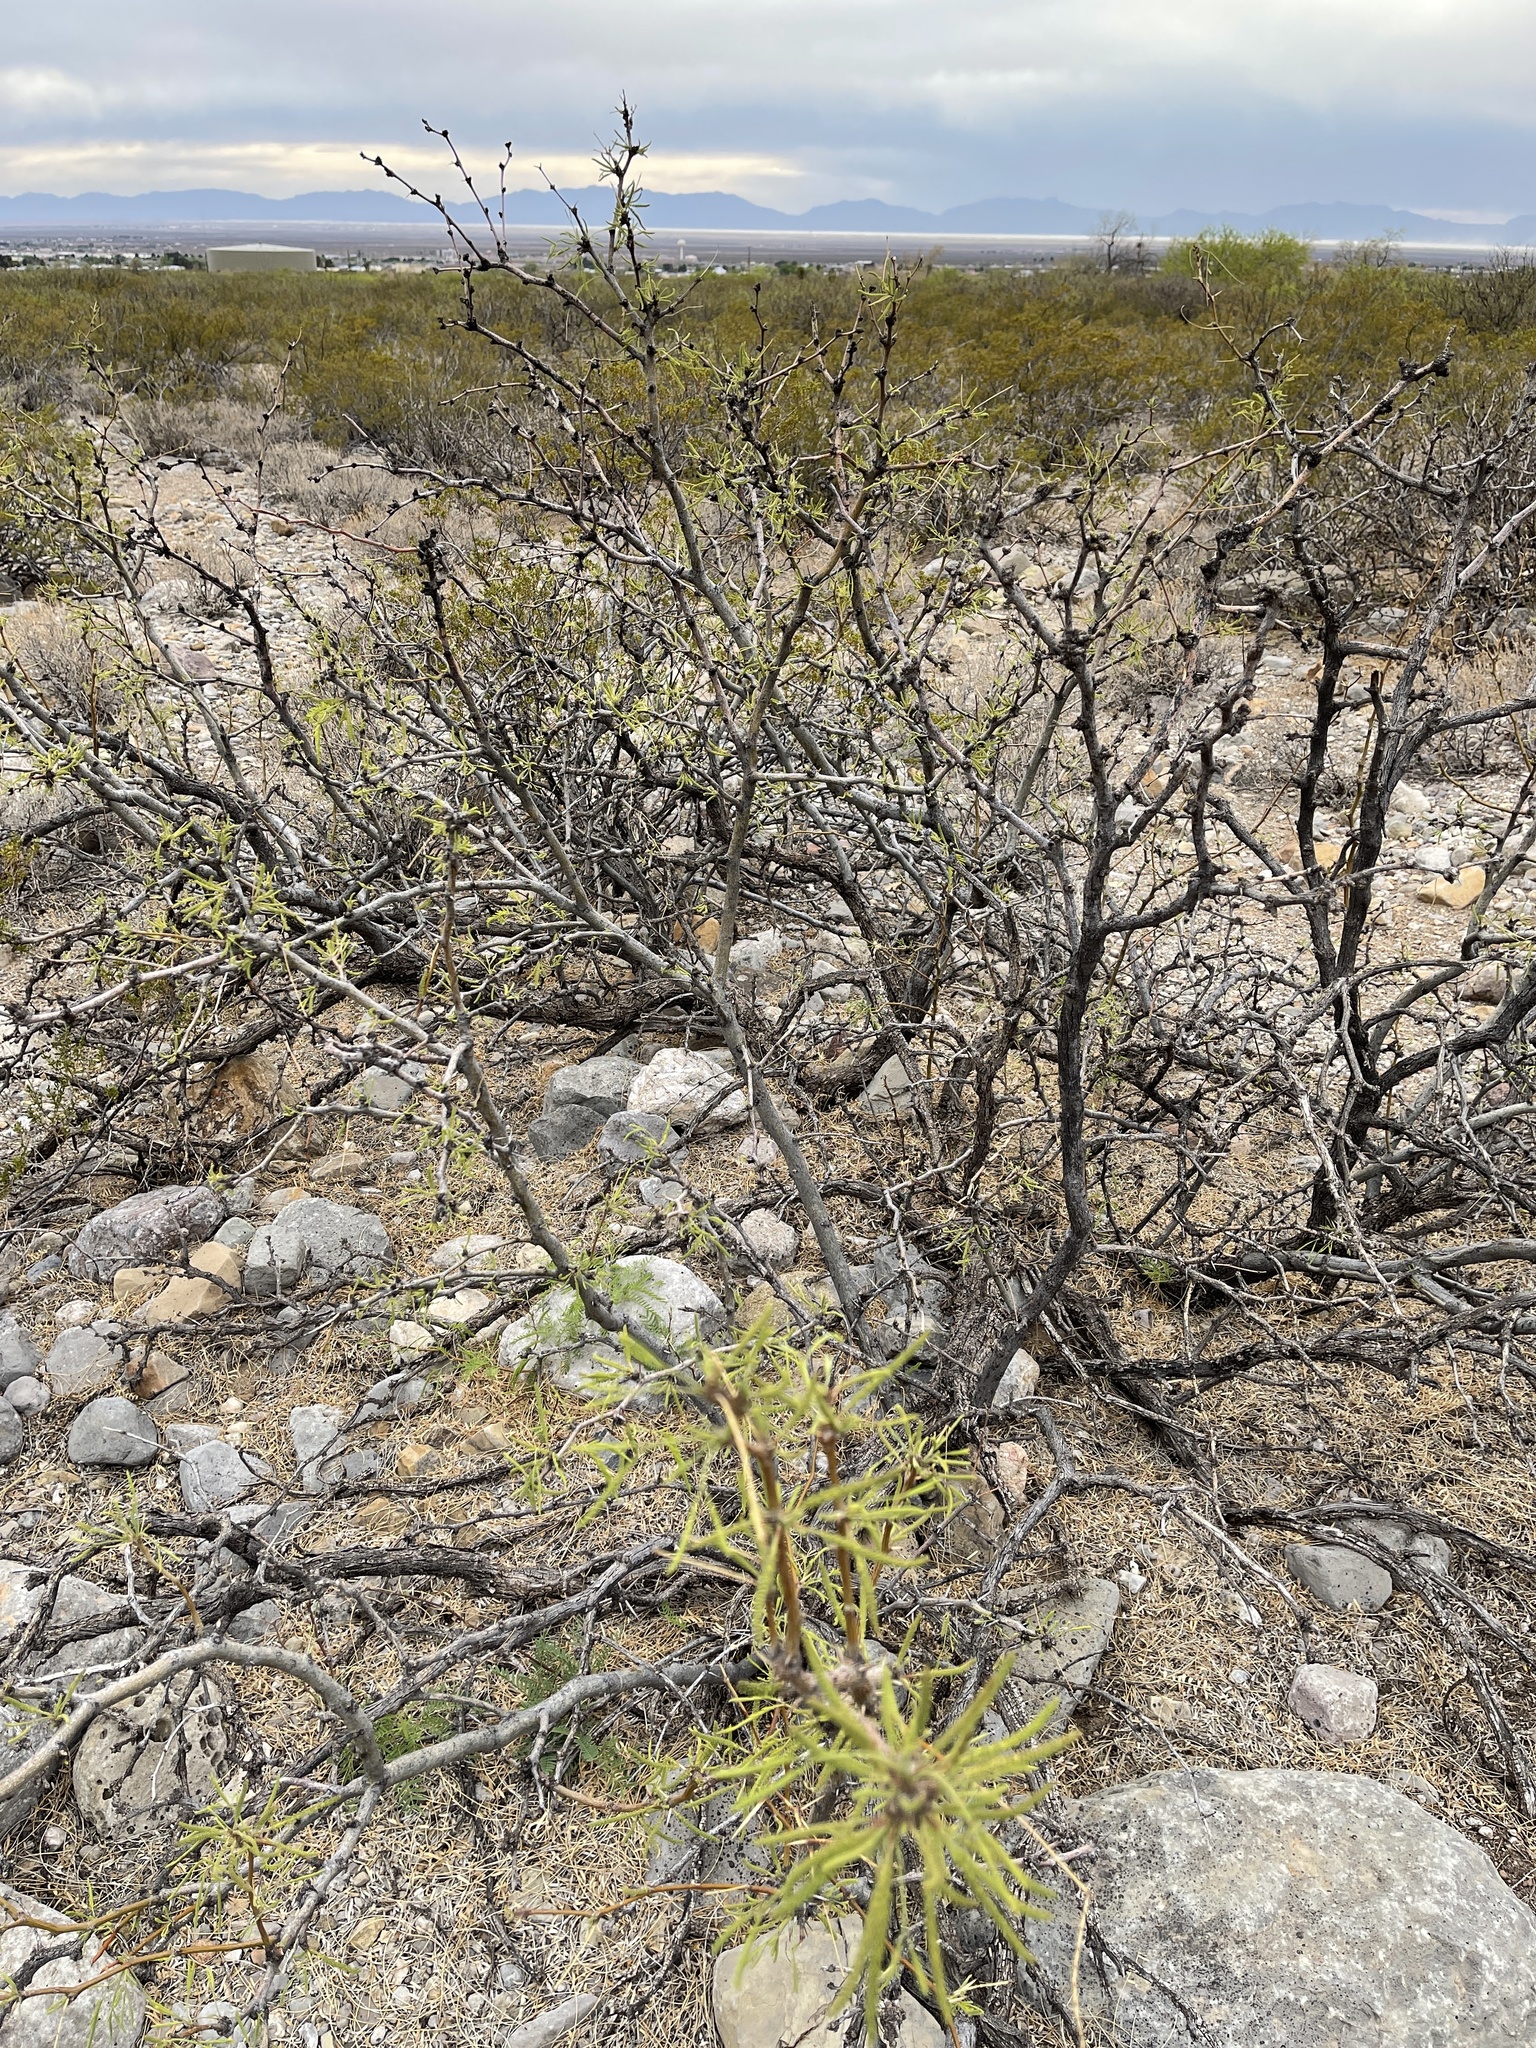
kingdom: Plantae
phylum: Tracheophyta
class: Magnoliopsida
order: Fabales
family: Fabaceae
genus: Prosopis
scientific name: Prosopis glandulosa
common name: Honey mesquite
